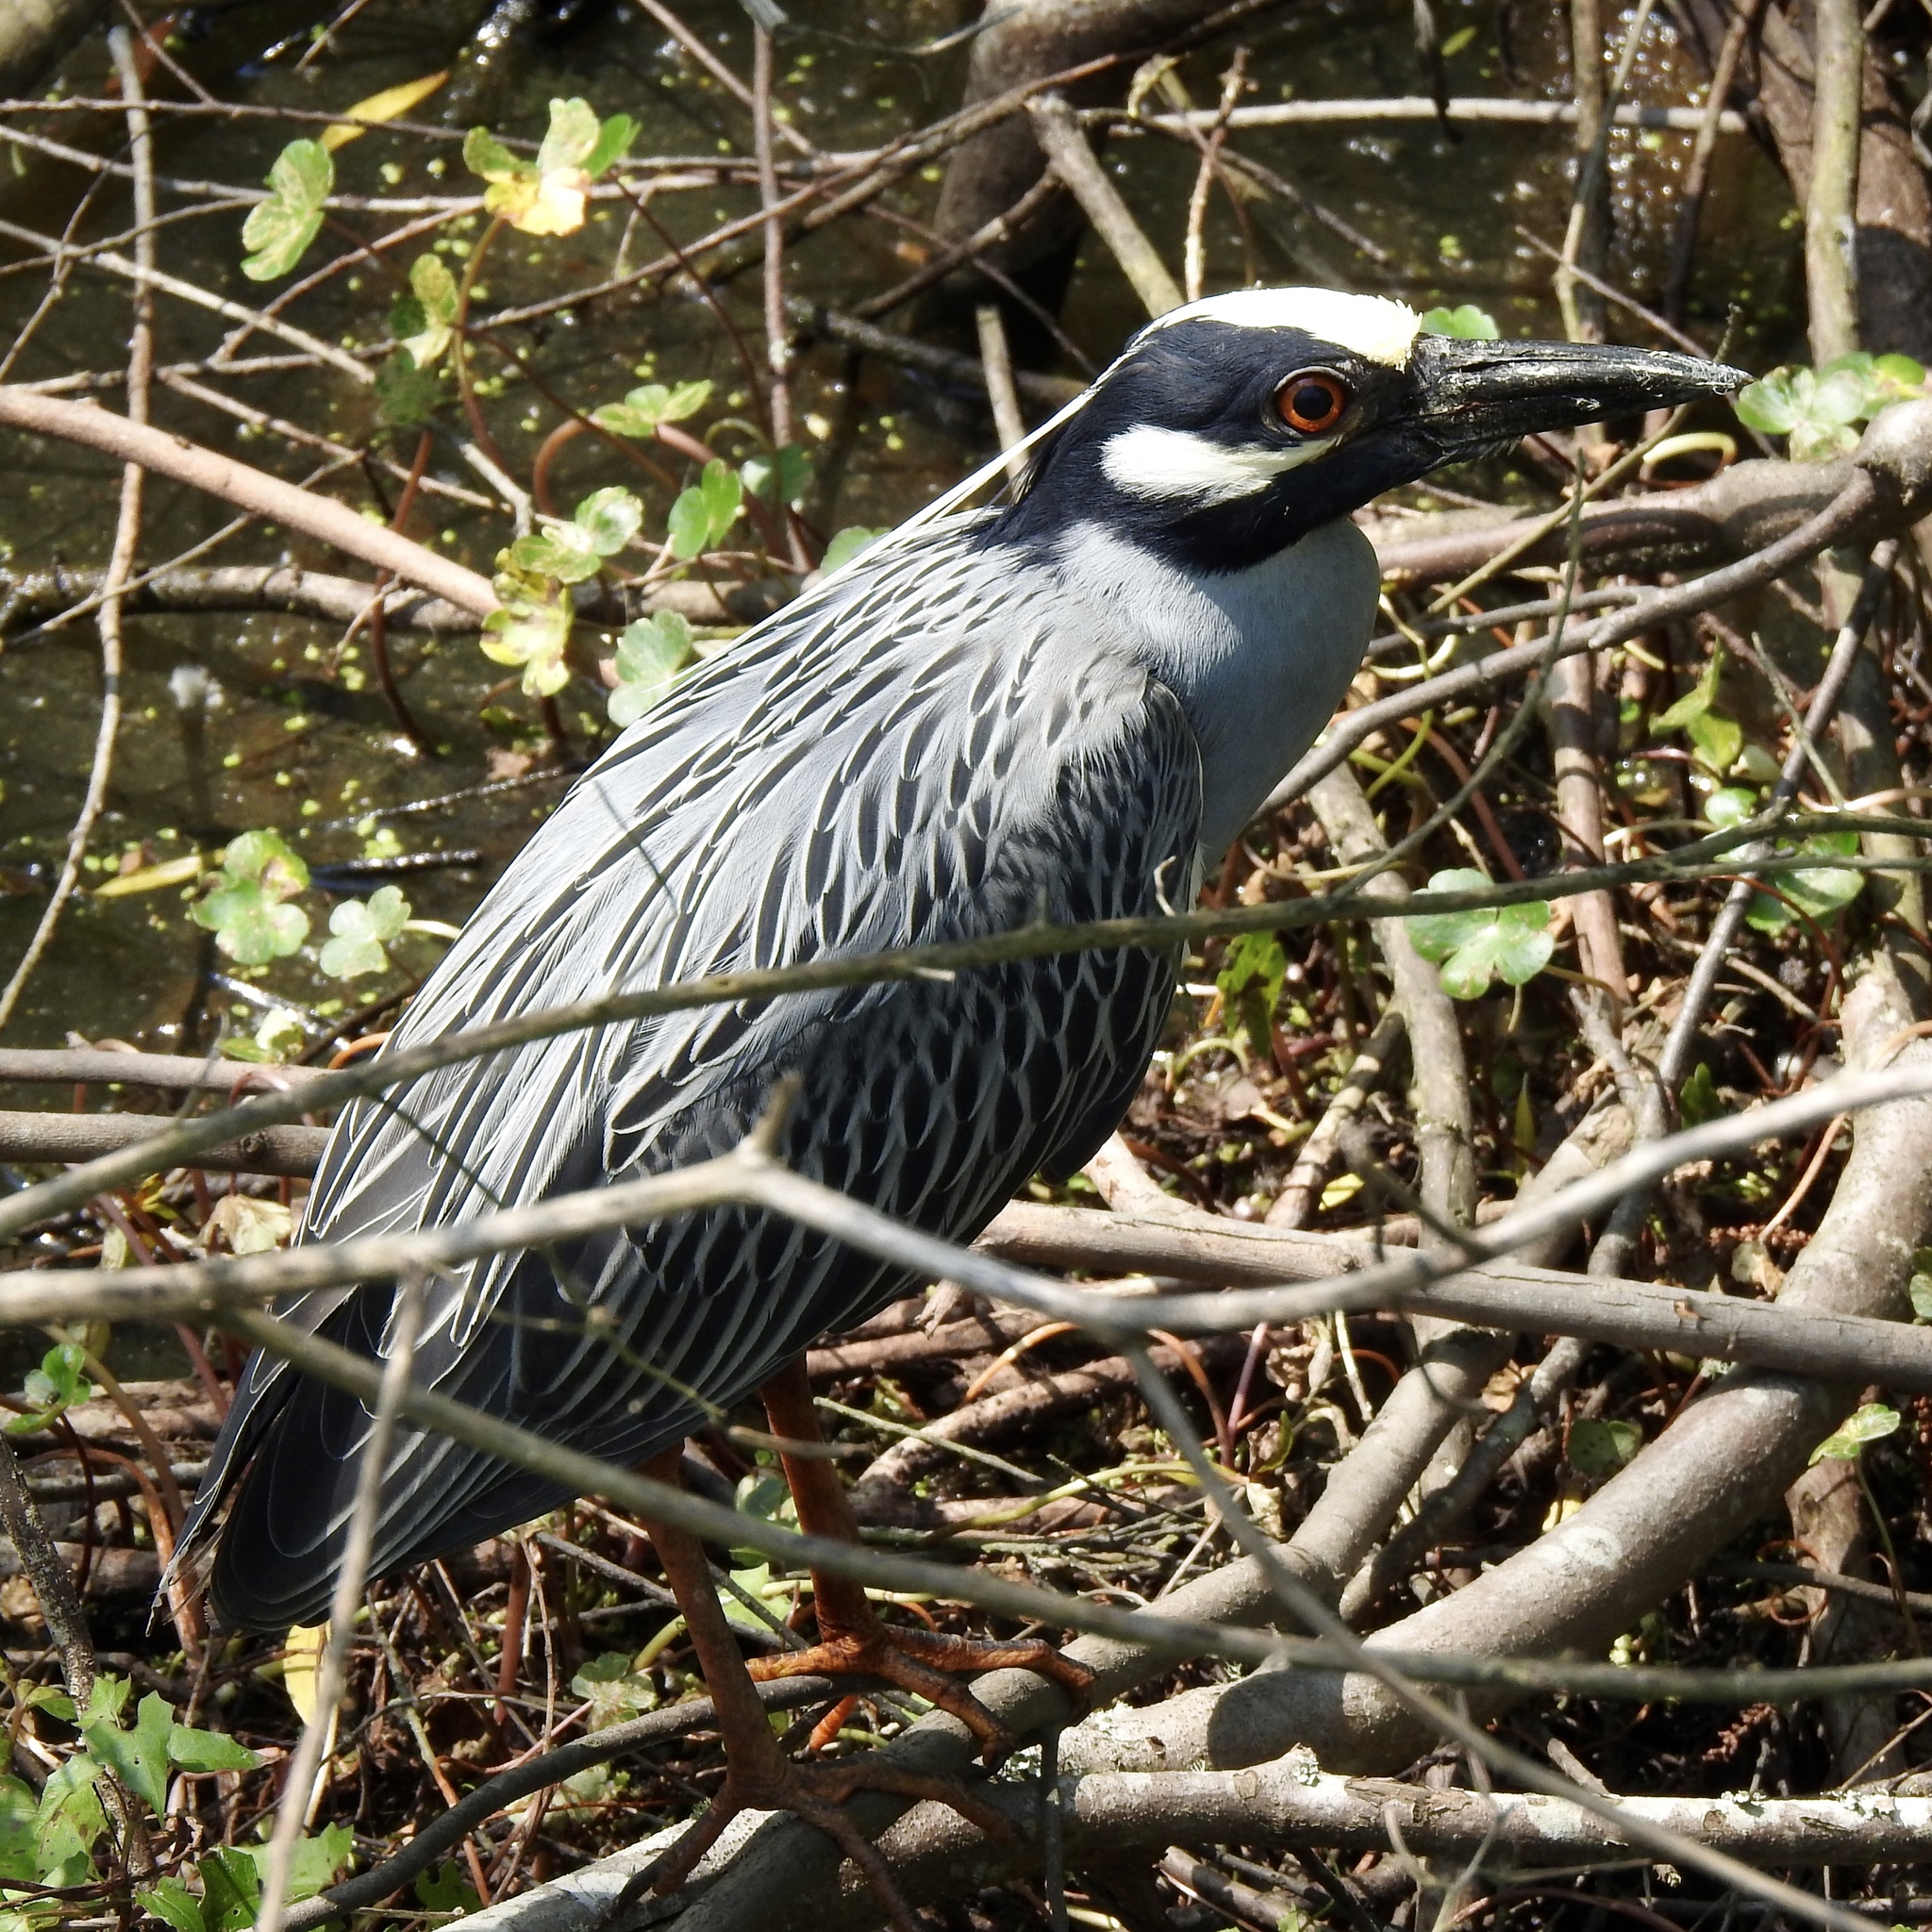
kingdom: Animalia
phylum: Chordata
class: Aves
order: Pelecaniformes
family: Ardeidae
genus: Nyctanassa
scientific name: Nyctanassa violacea
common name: Yellow-crowned night heron
